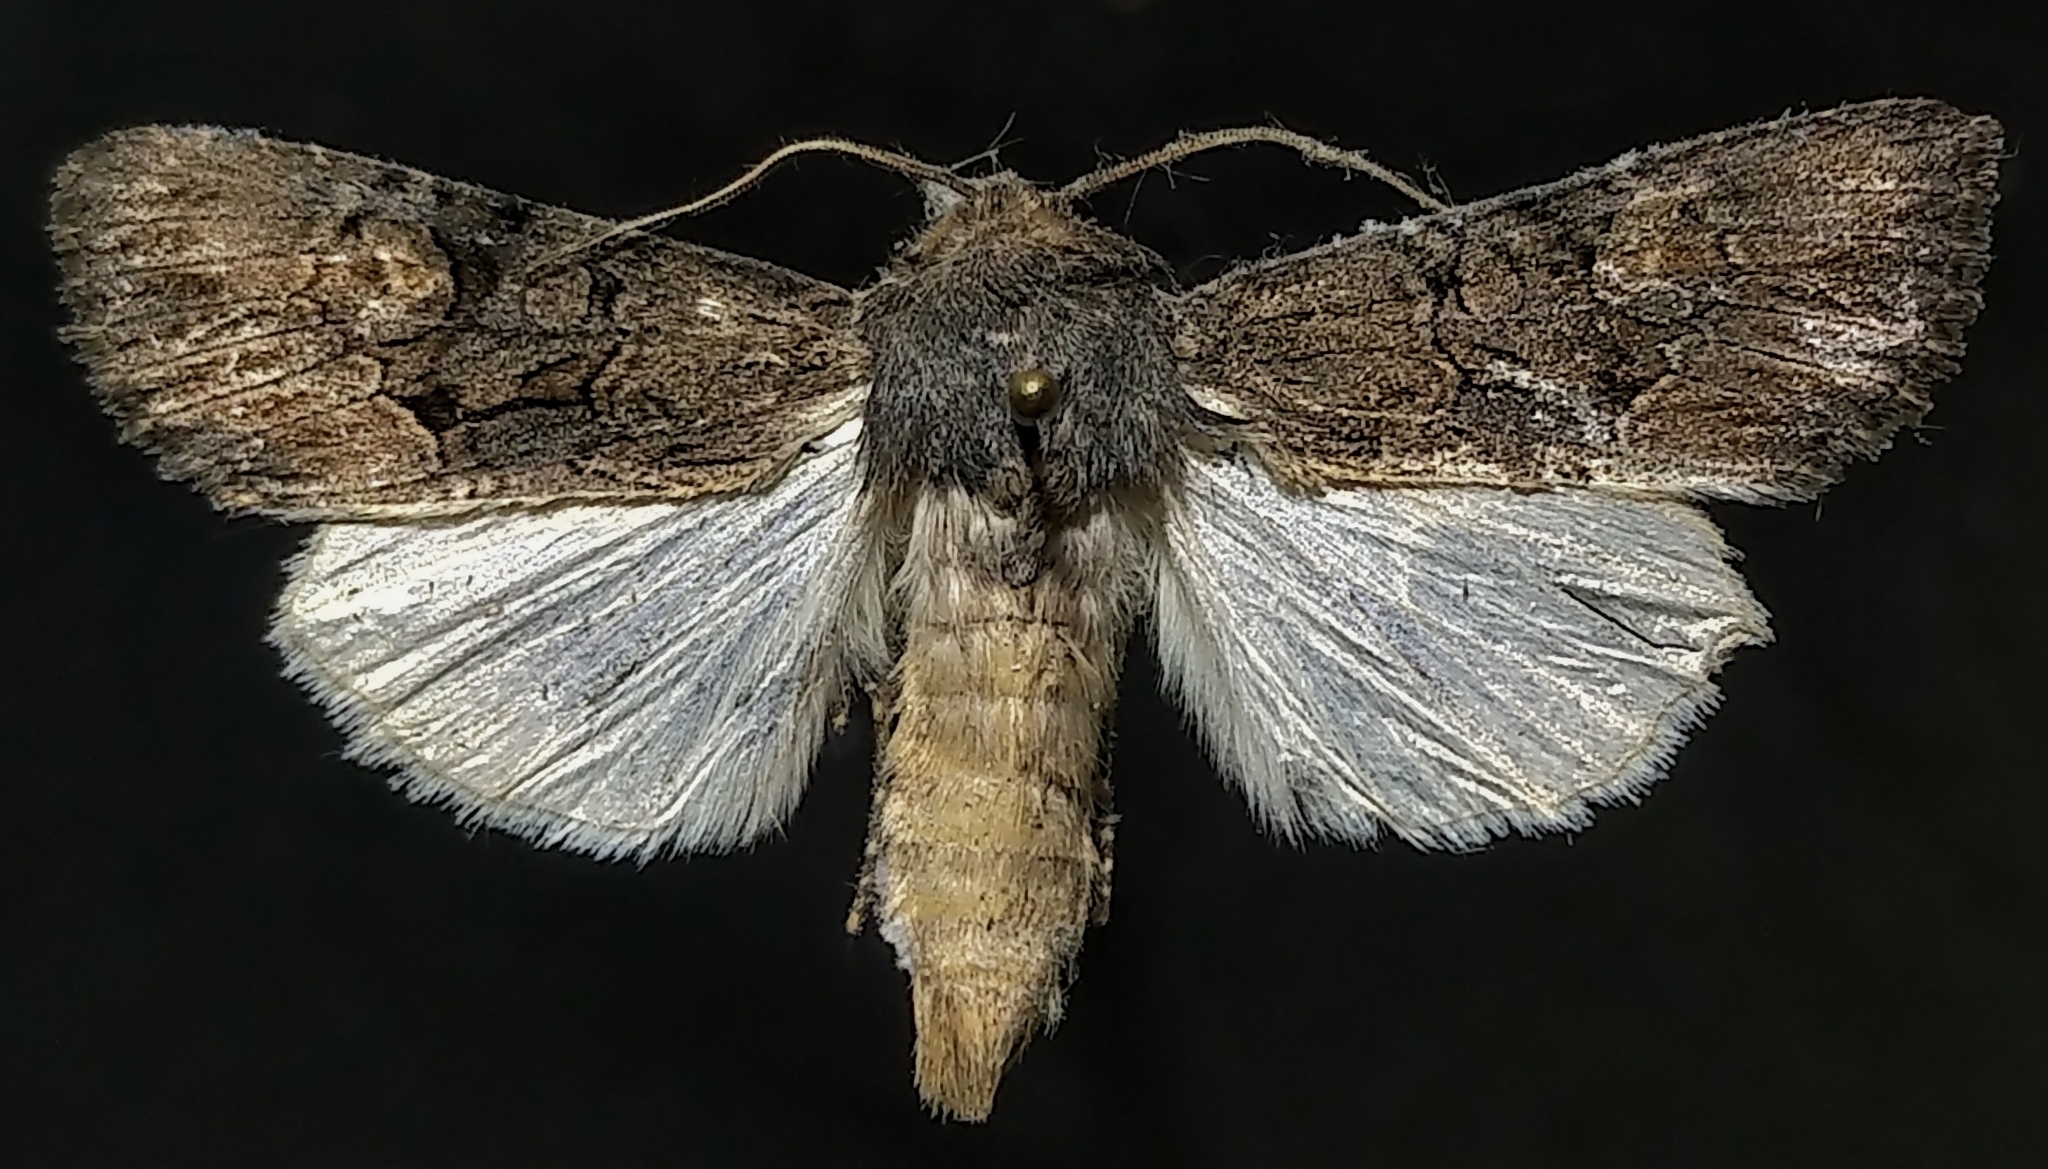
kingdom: Animalia
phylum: Arthropoda
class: Insecta
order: Lepidoptera
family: Noctuidae
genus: Apamea
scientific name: Apamea burgessi
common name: Burgess' apamea moth
